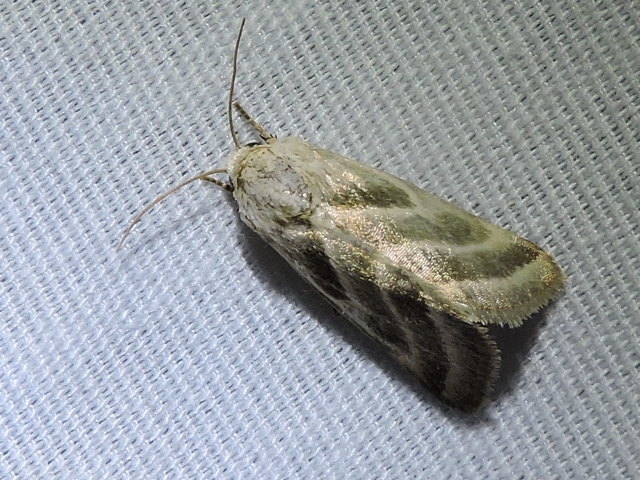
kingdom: Animalia
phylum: Arthropoda
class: Insecta
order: Lepidoptera
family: Noctuidae
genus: Schinia
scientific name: Schinia trifascia
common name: Three-lined flower moth
